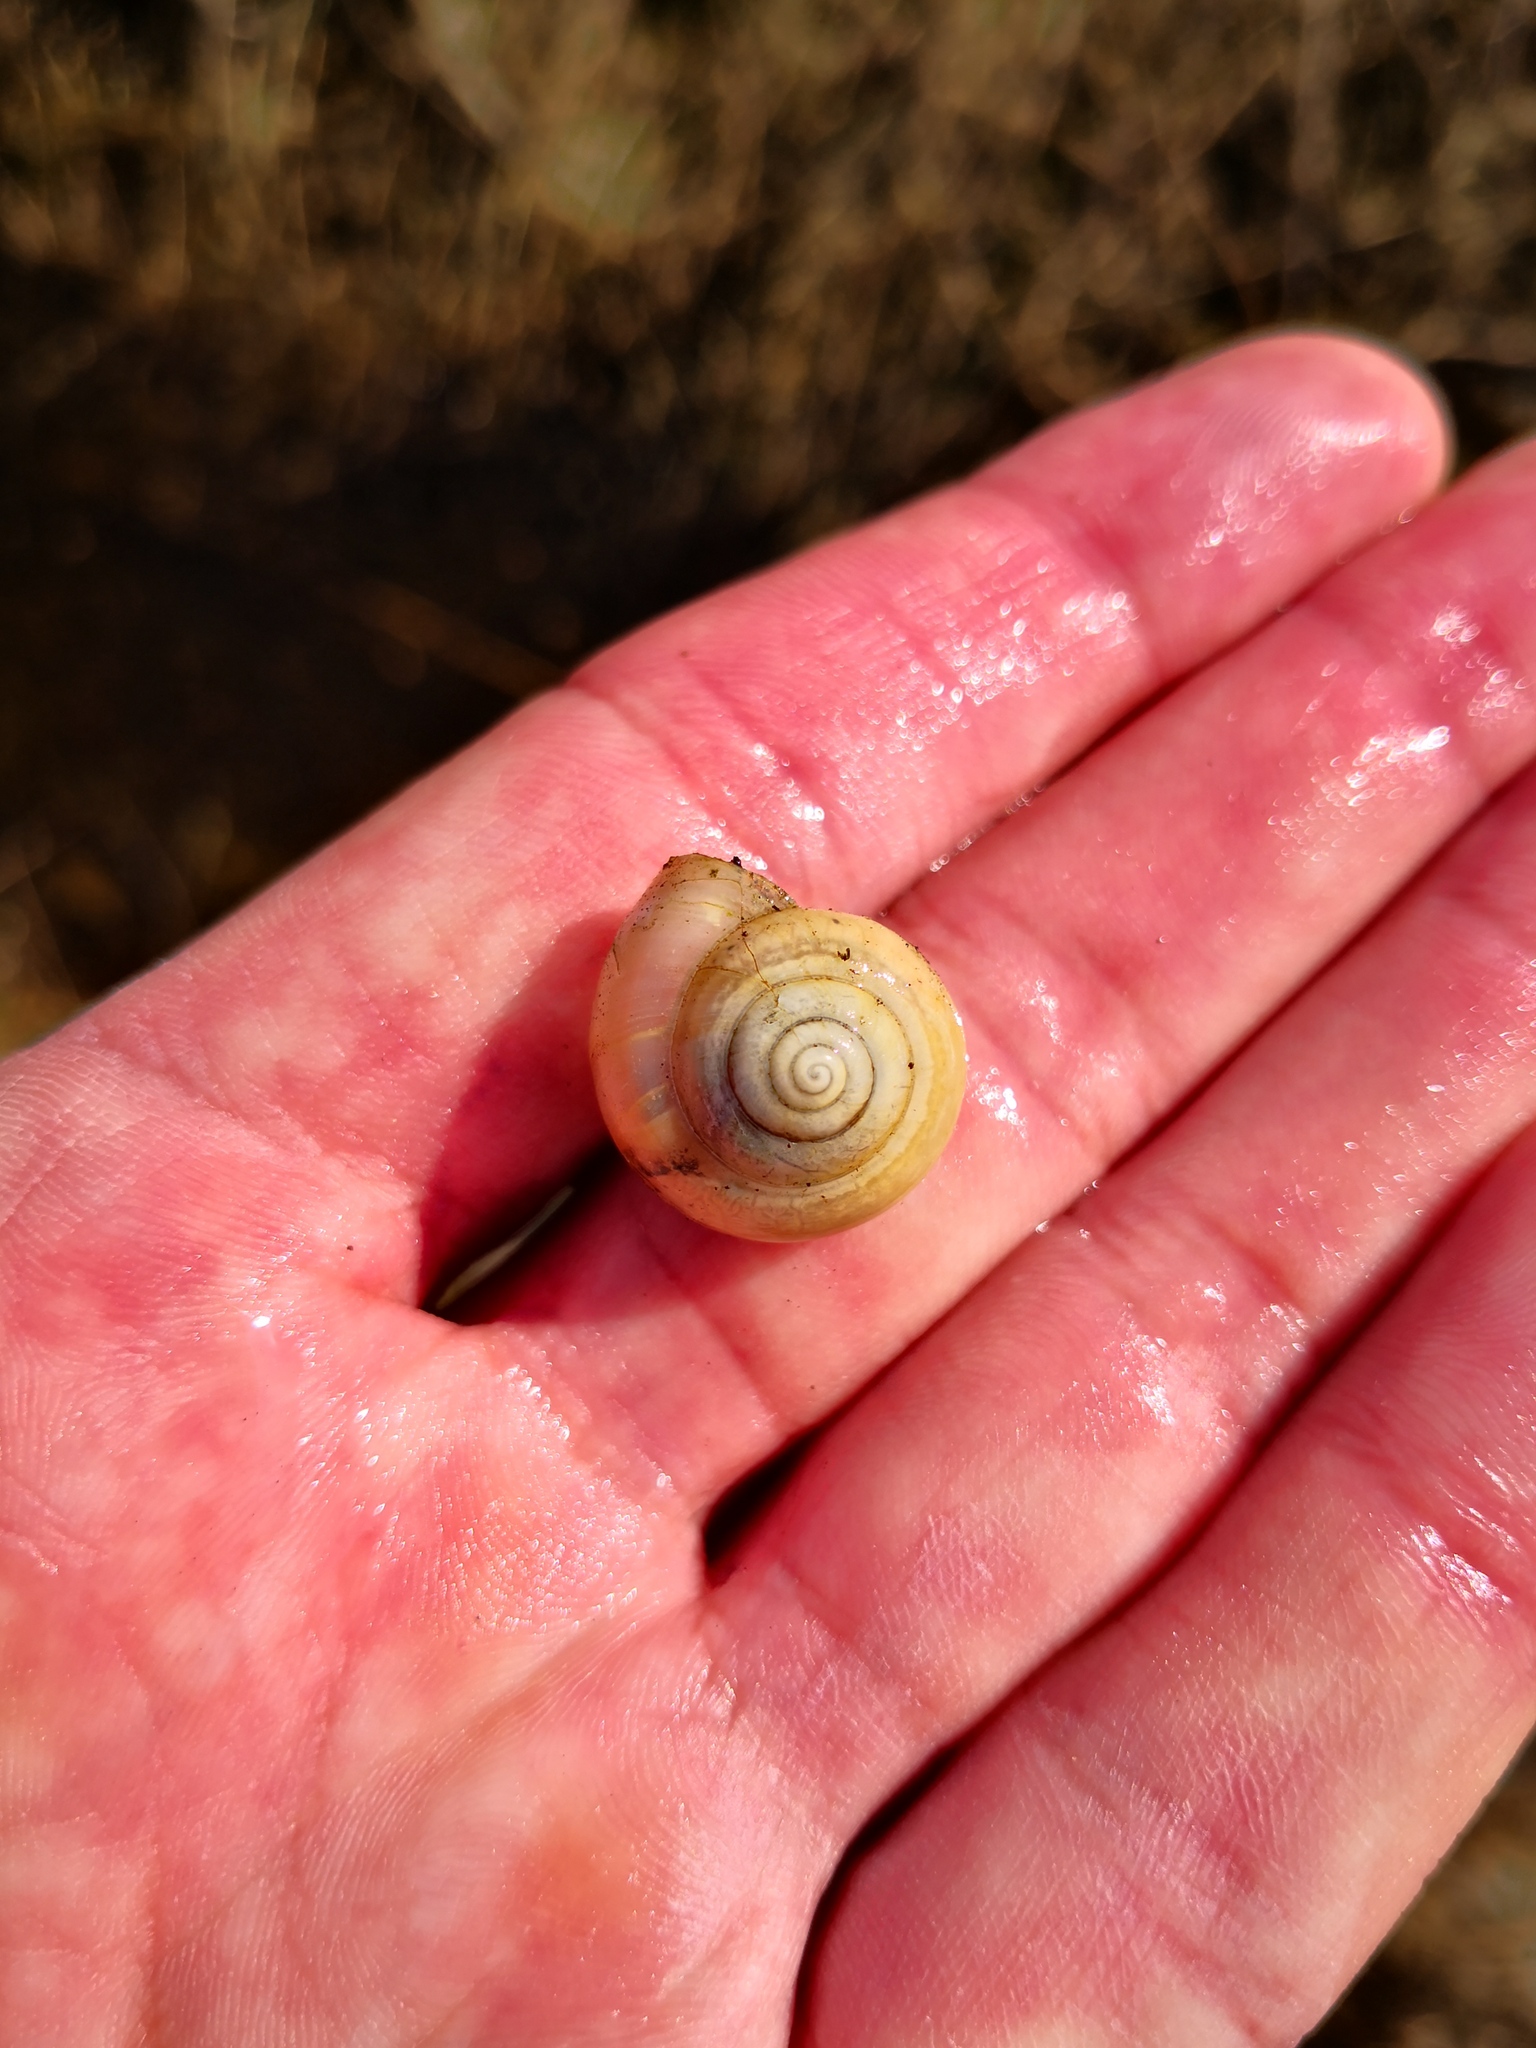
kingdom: Animalia
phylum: Mollusca
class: Gastropoda
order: Stylommatophora
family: Camaenidae
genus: Fruticicola
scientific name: Fruticicola fruticum
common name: Bush snail
